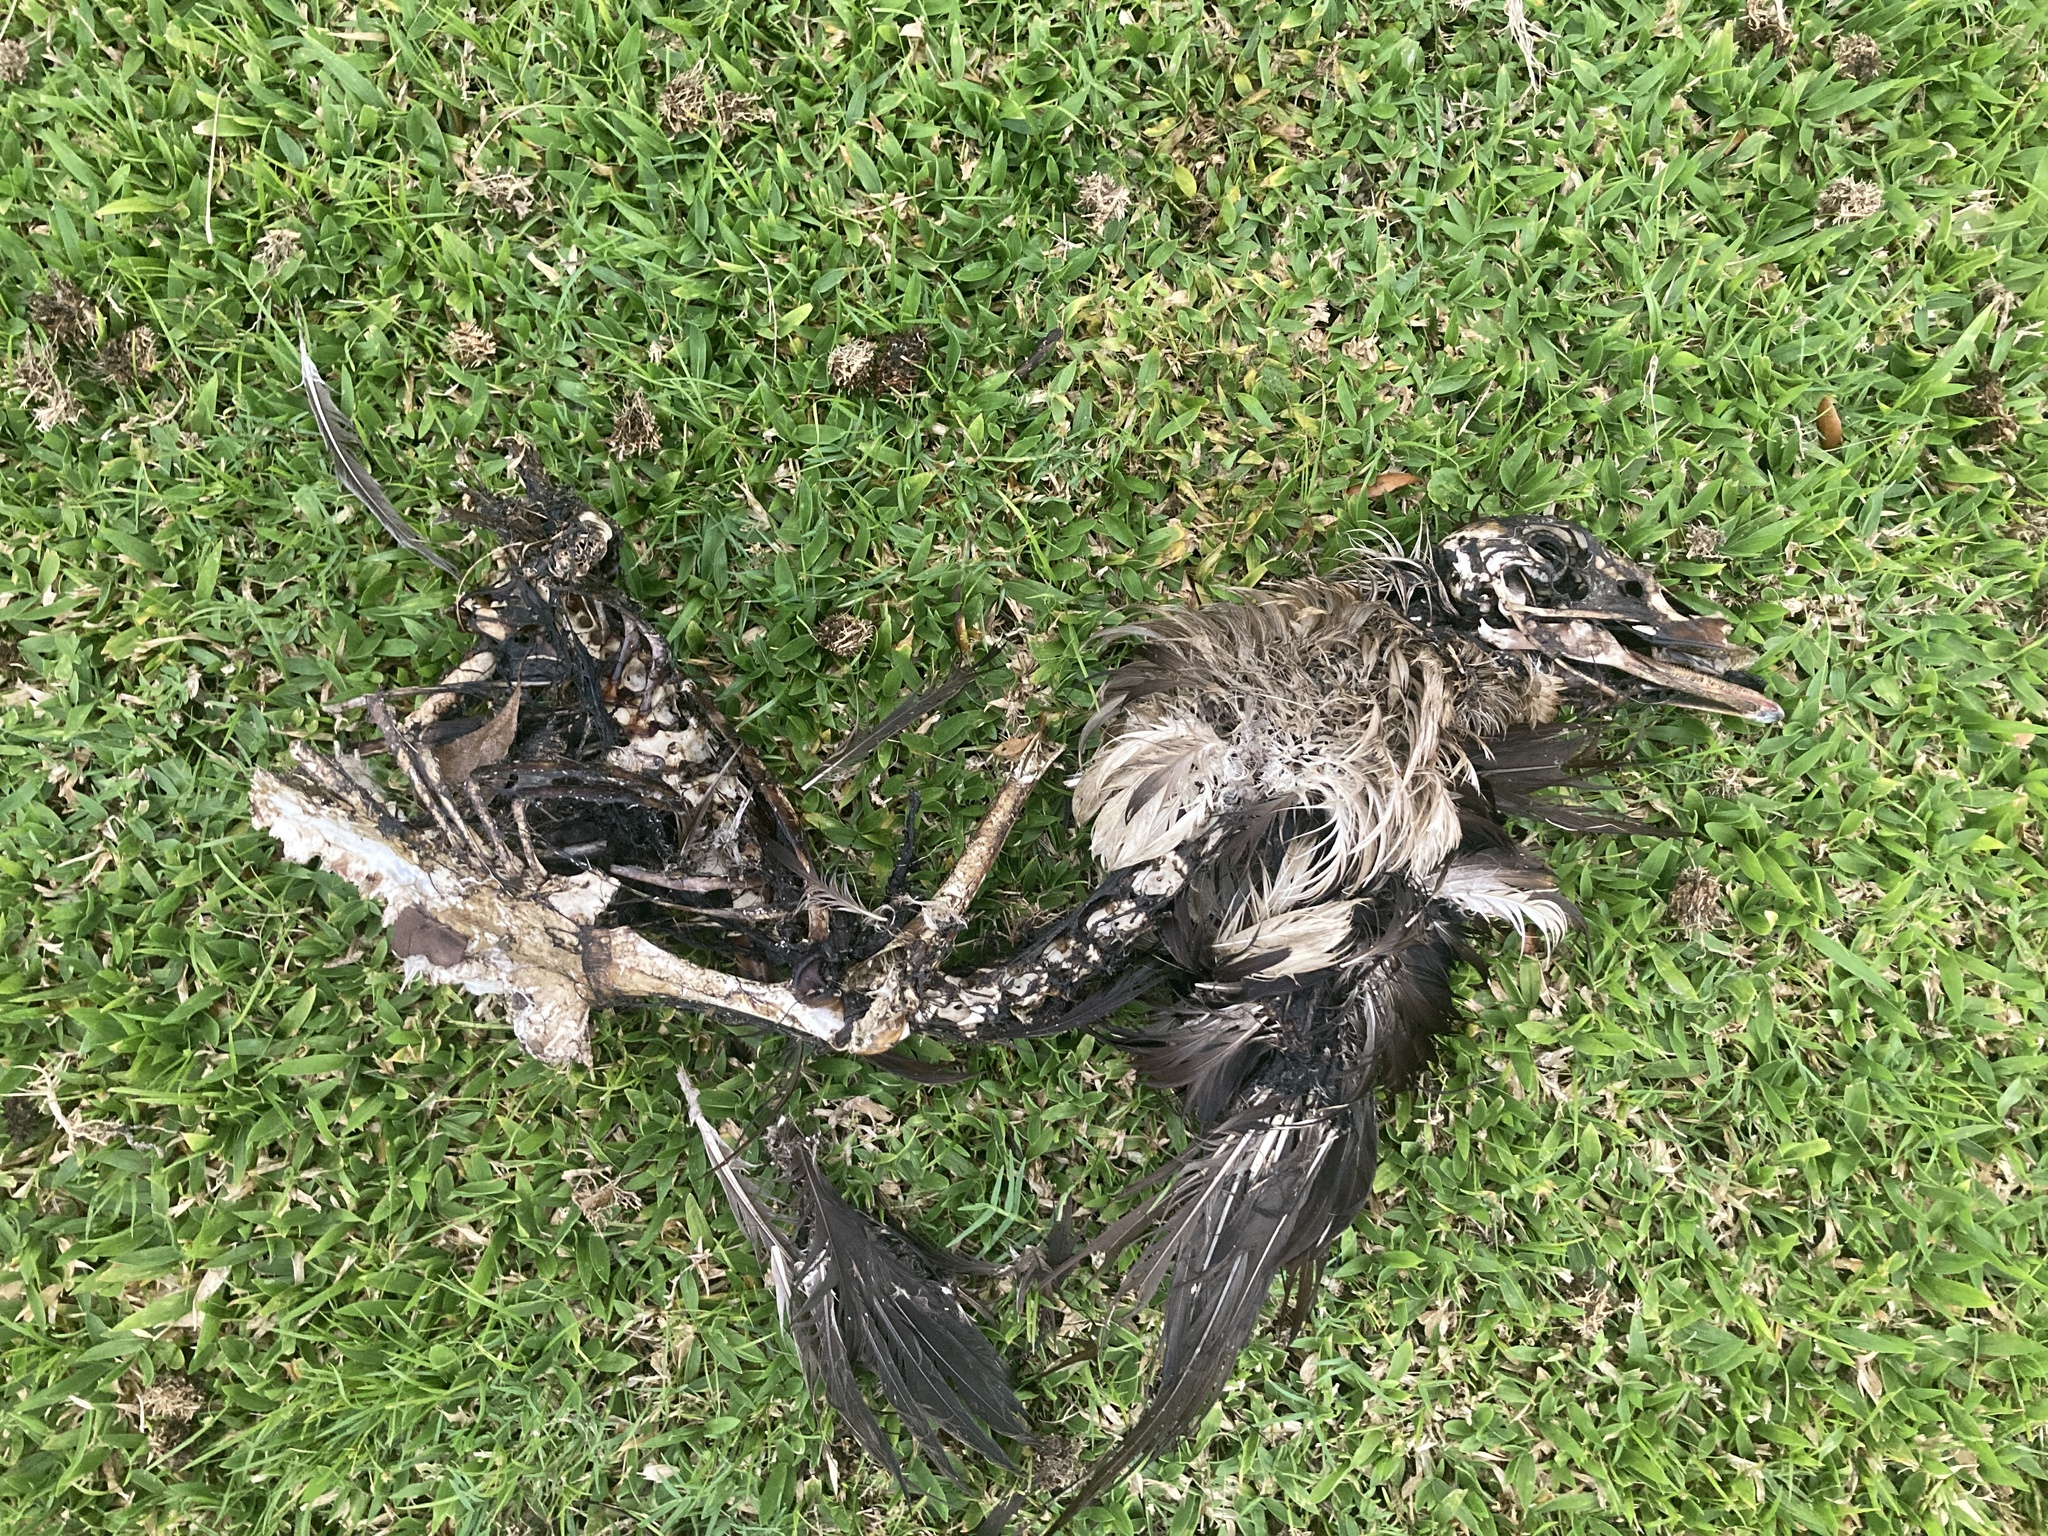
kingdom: Animalia
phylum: Chordata
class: Aves
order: Anseriformes
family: Anatidae
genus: Cairina
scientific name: Cairina moschata
